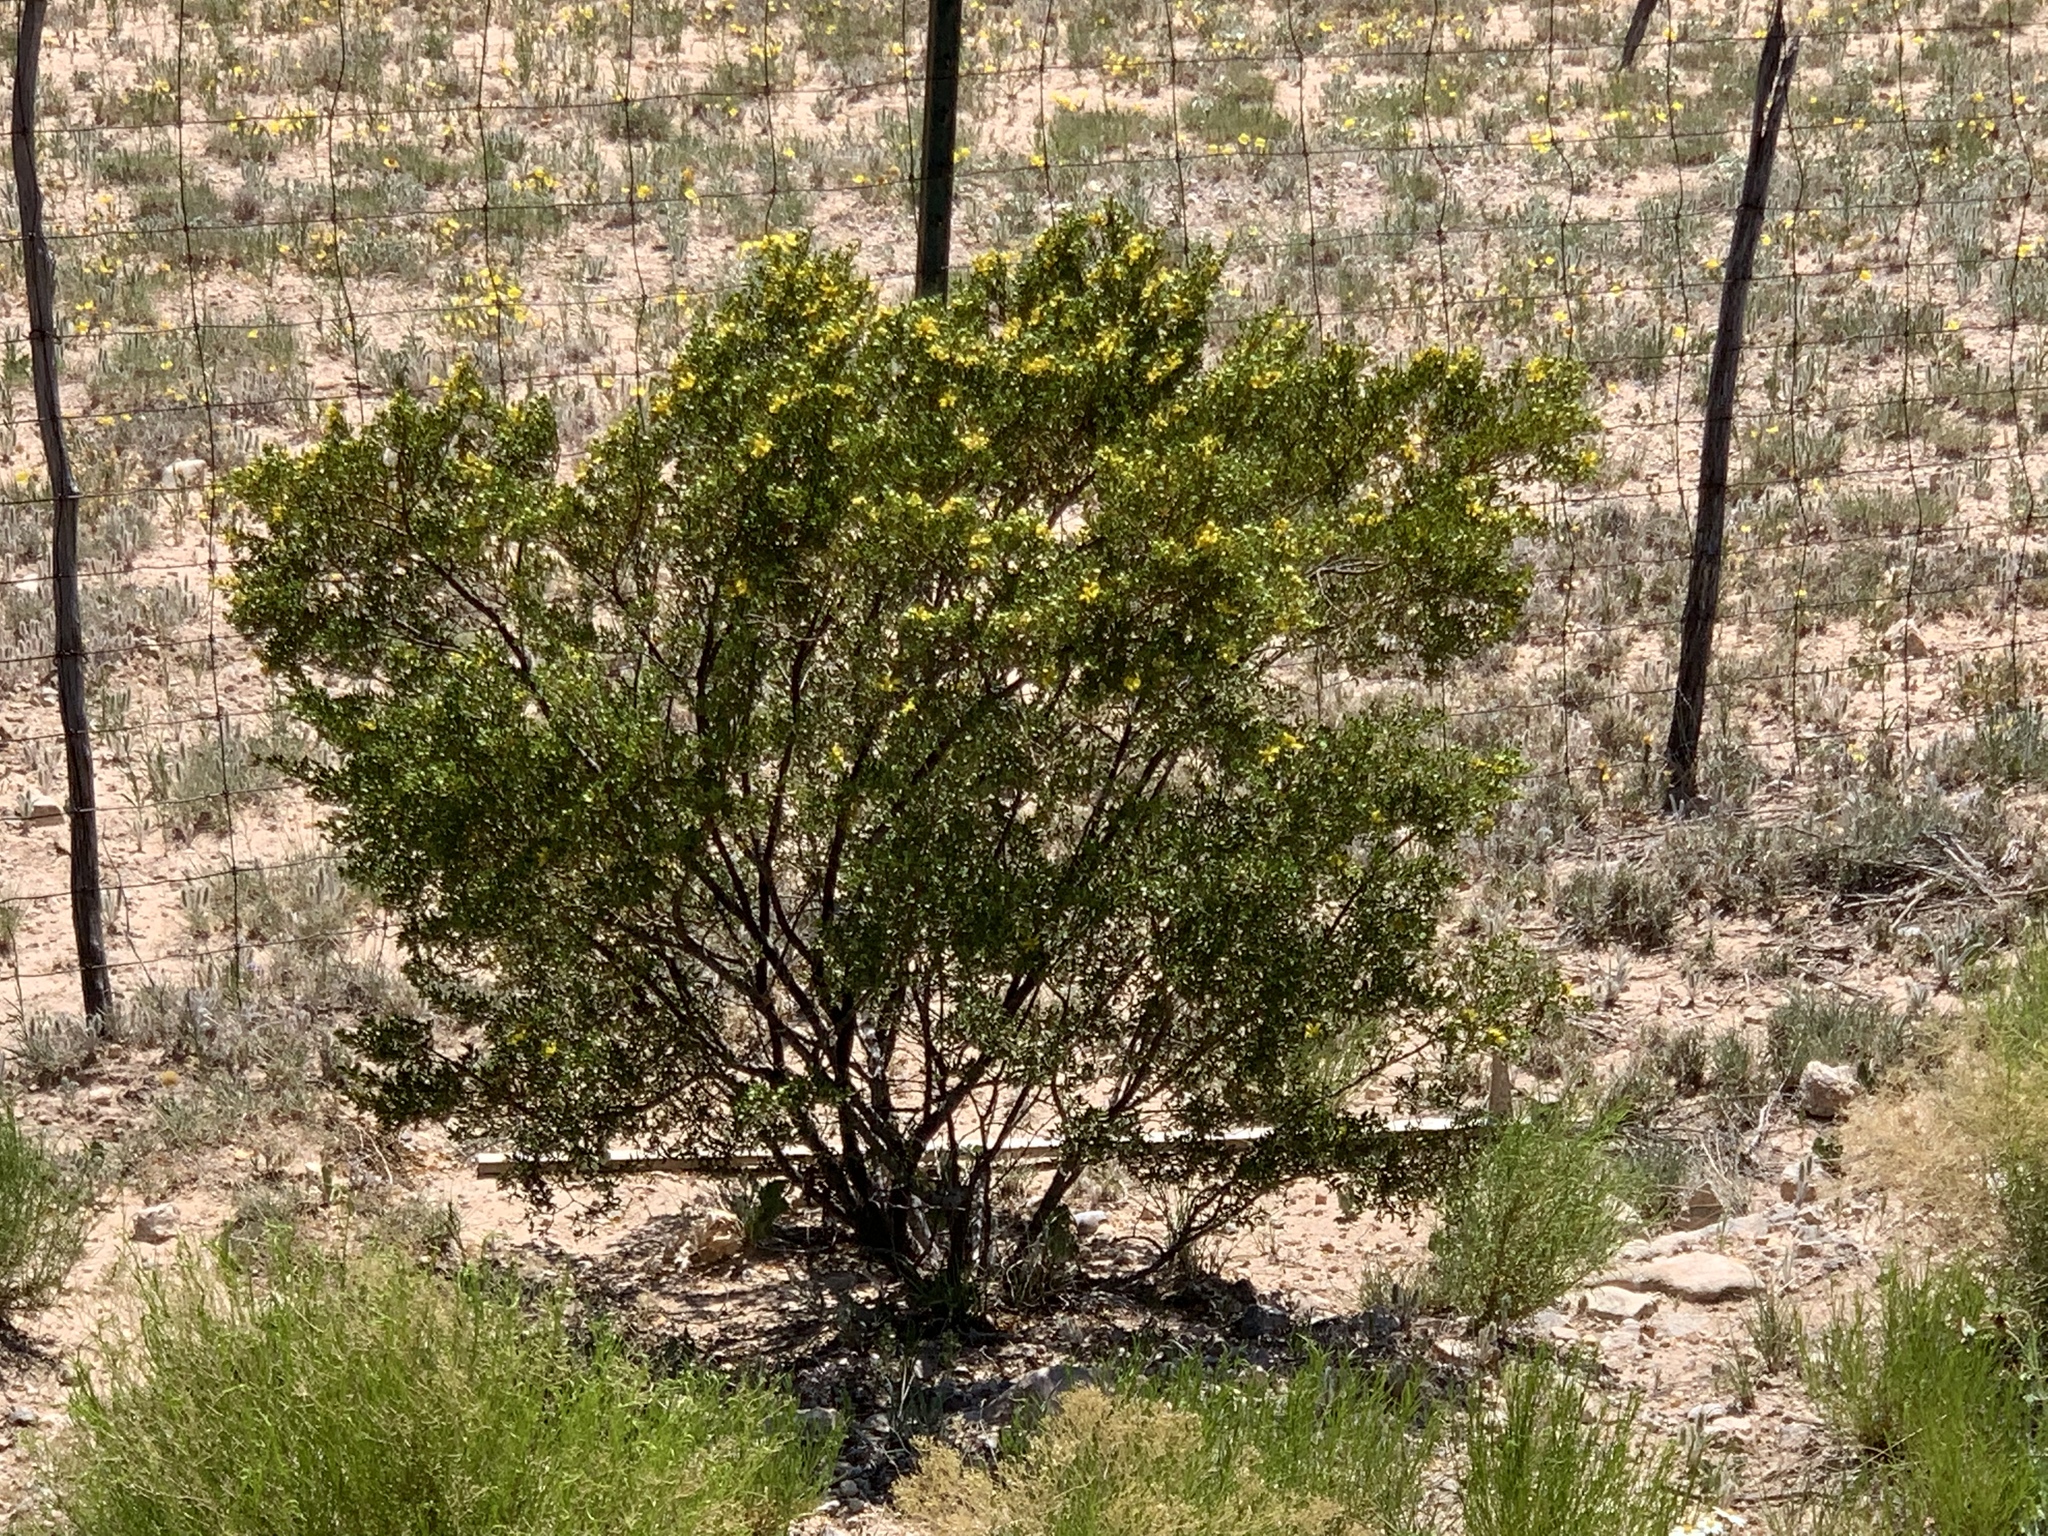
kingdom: Plantae
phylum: Tracheophyta
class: Magnoliopsida
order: Zygophyllales
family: Zygophyllaceae
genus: Larrea
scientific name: Larrea tridentata
